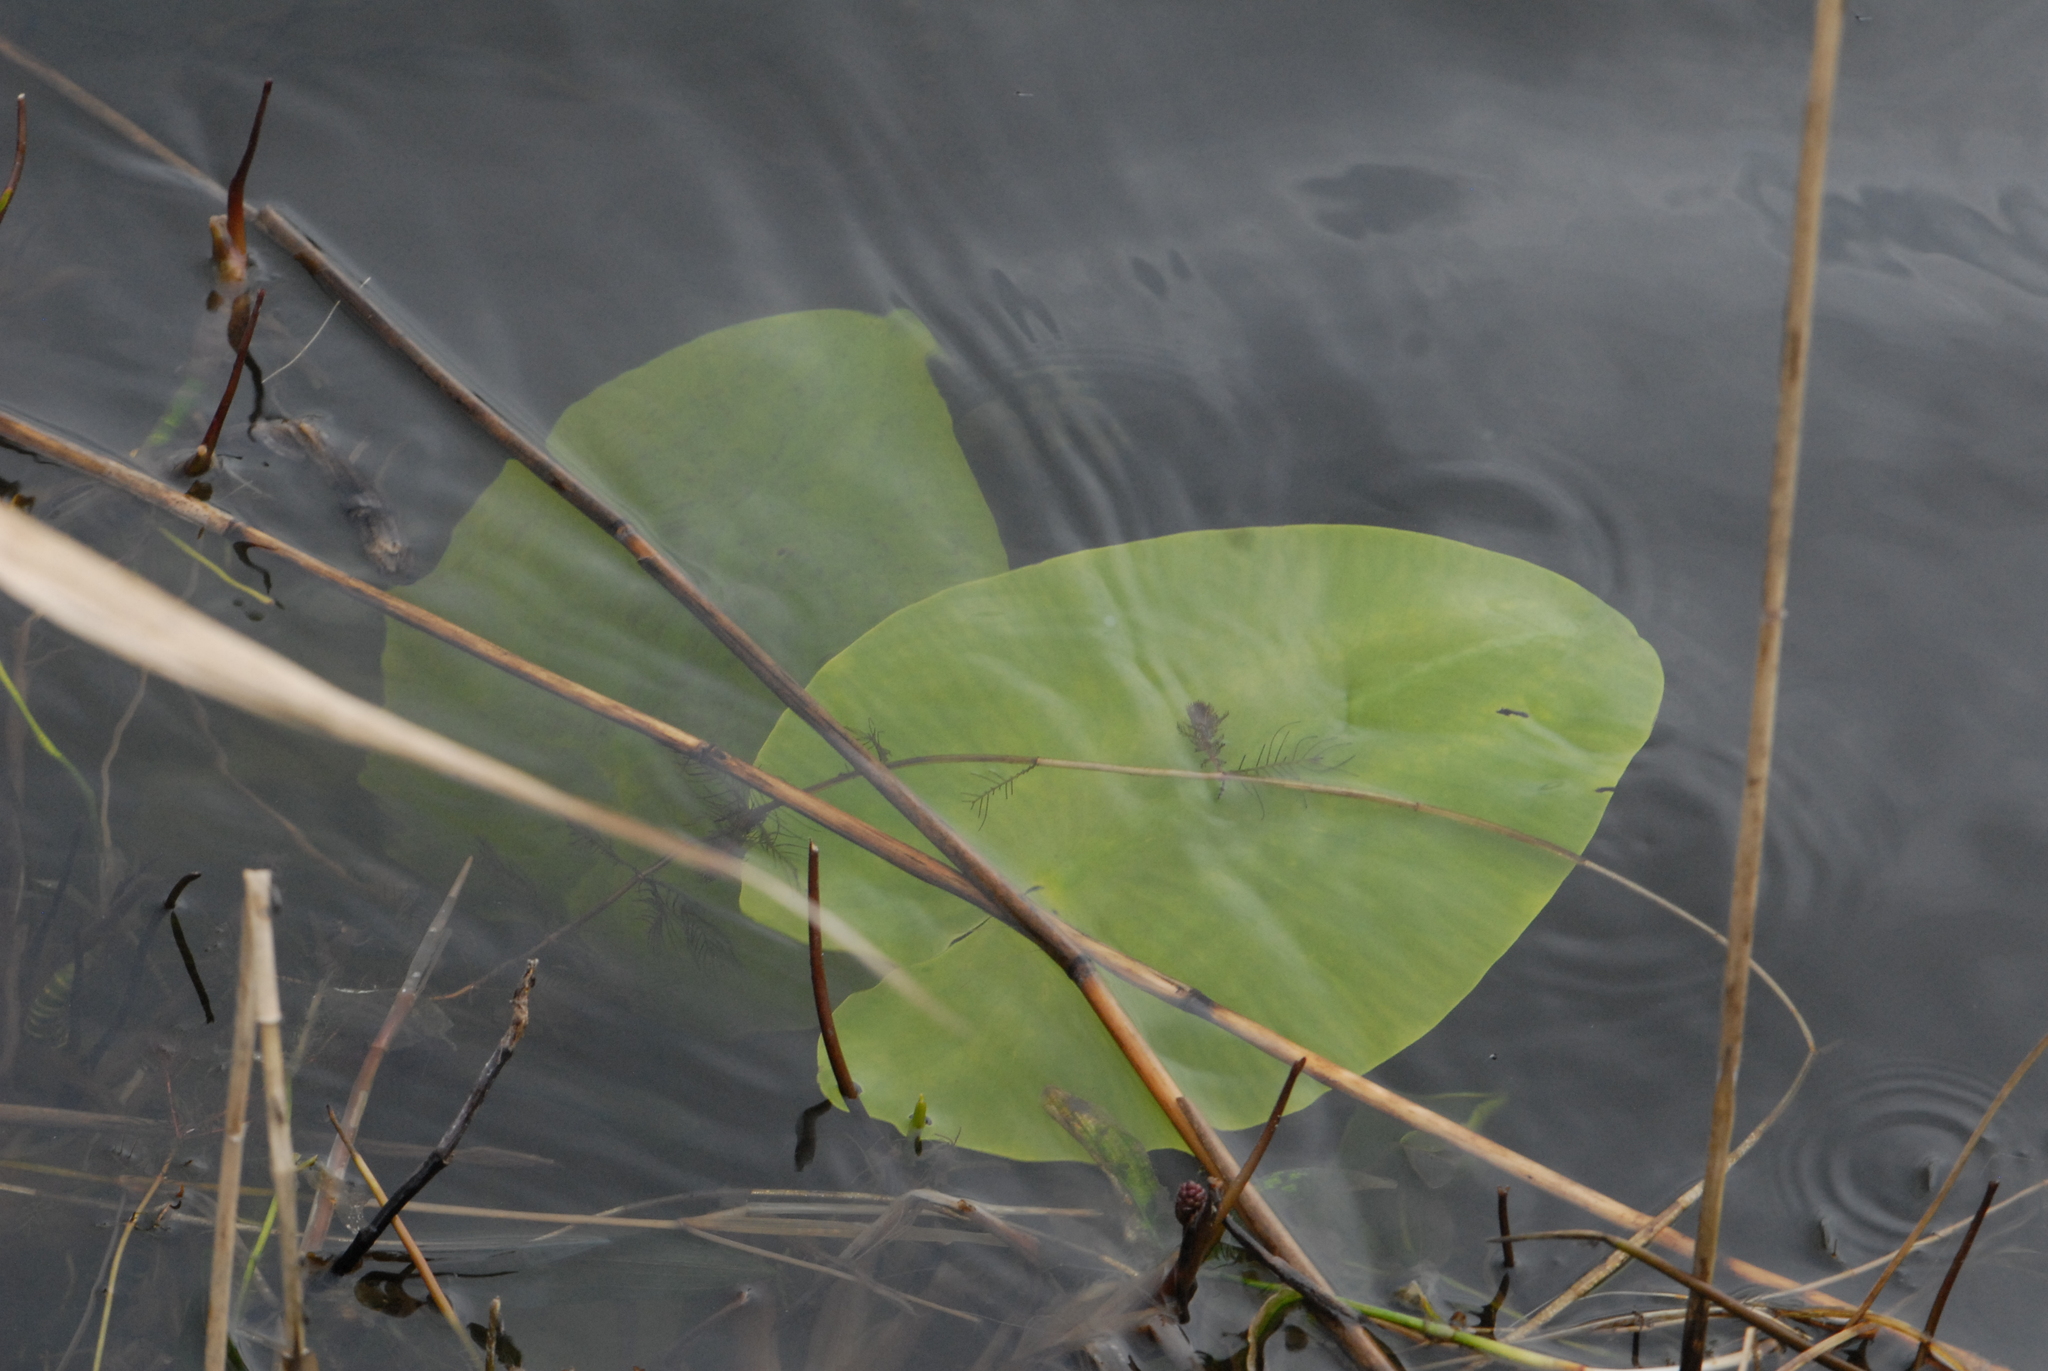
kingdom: Plantae
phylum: Tracheophyta
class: Magnoliopsida
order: Nymphaeales
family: Nymphaeaceae
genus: Nuphar
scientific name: Nuphar lutea
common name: Yellow water-lily
